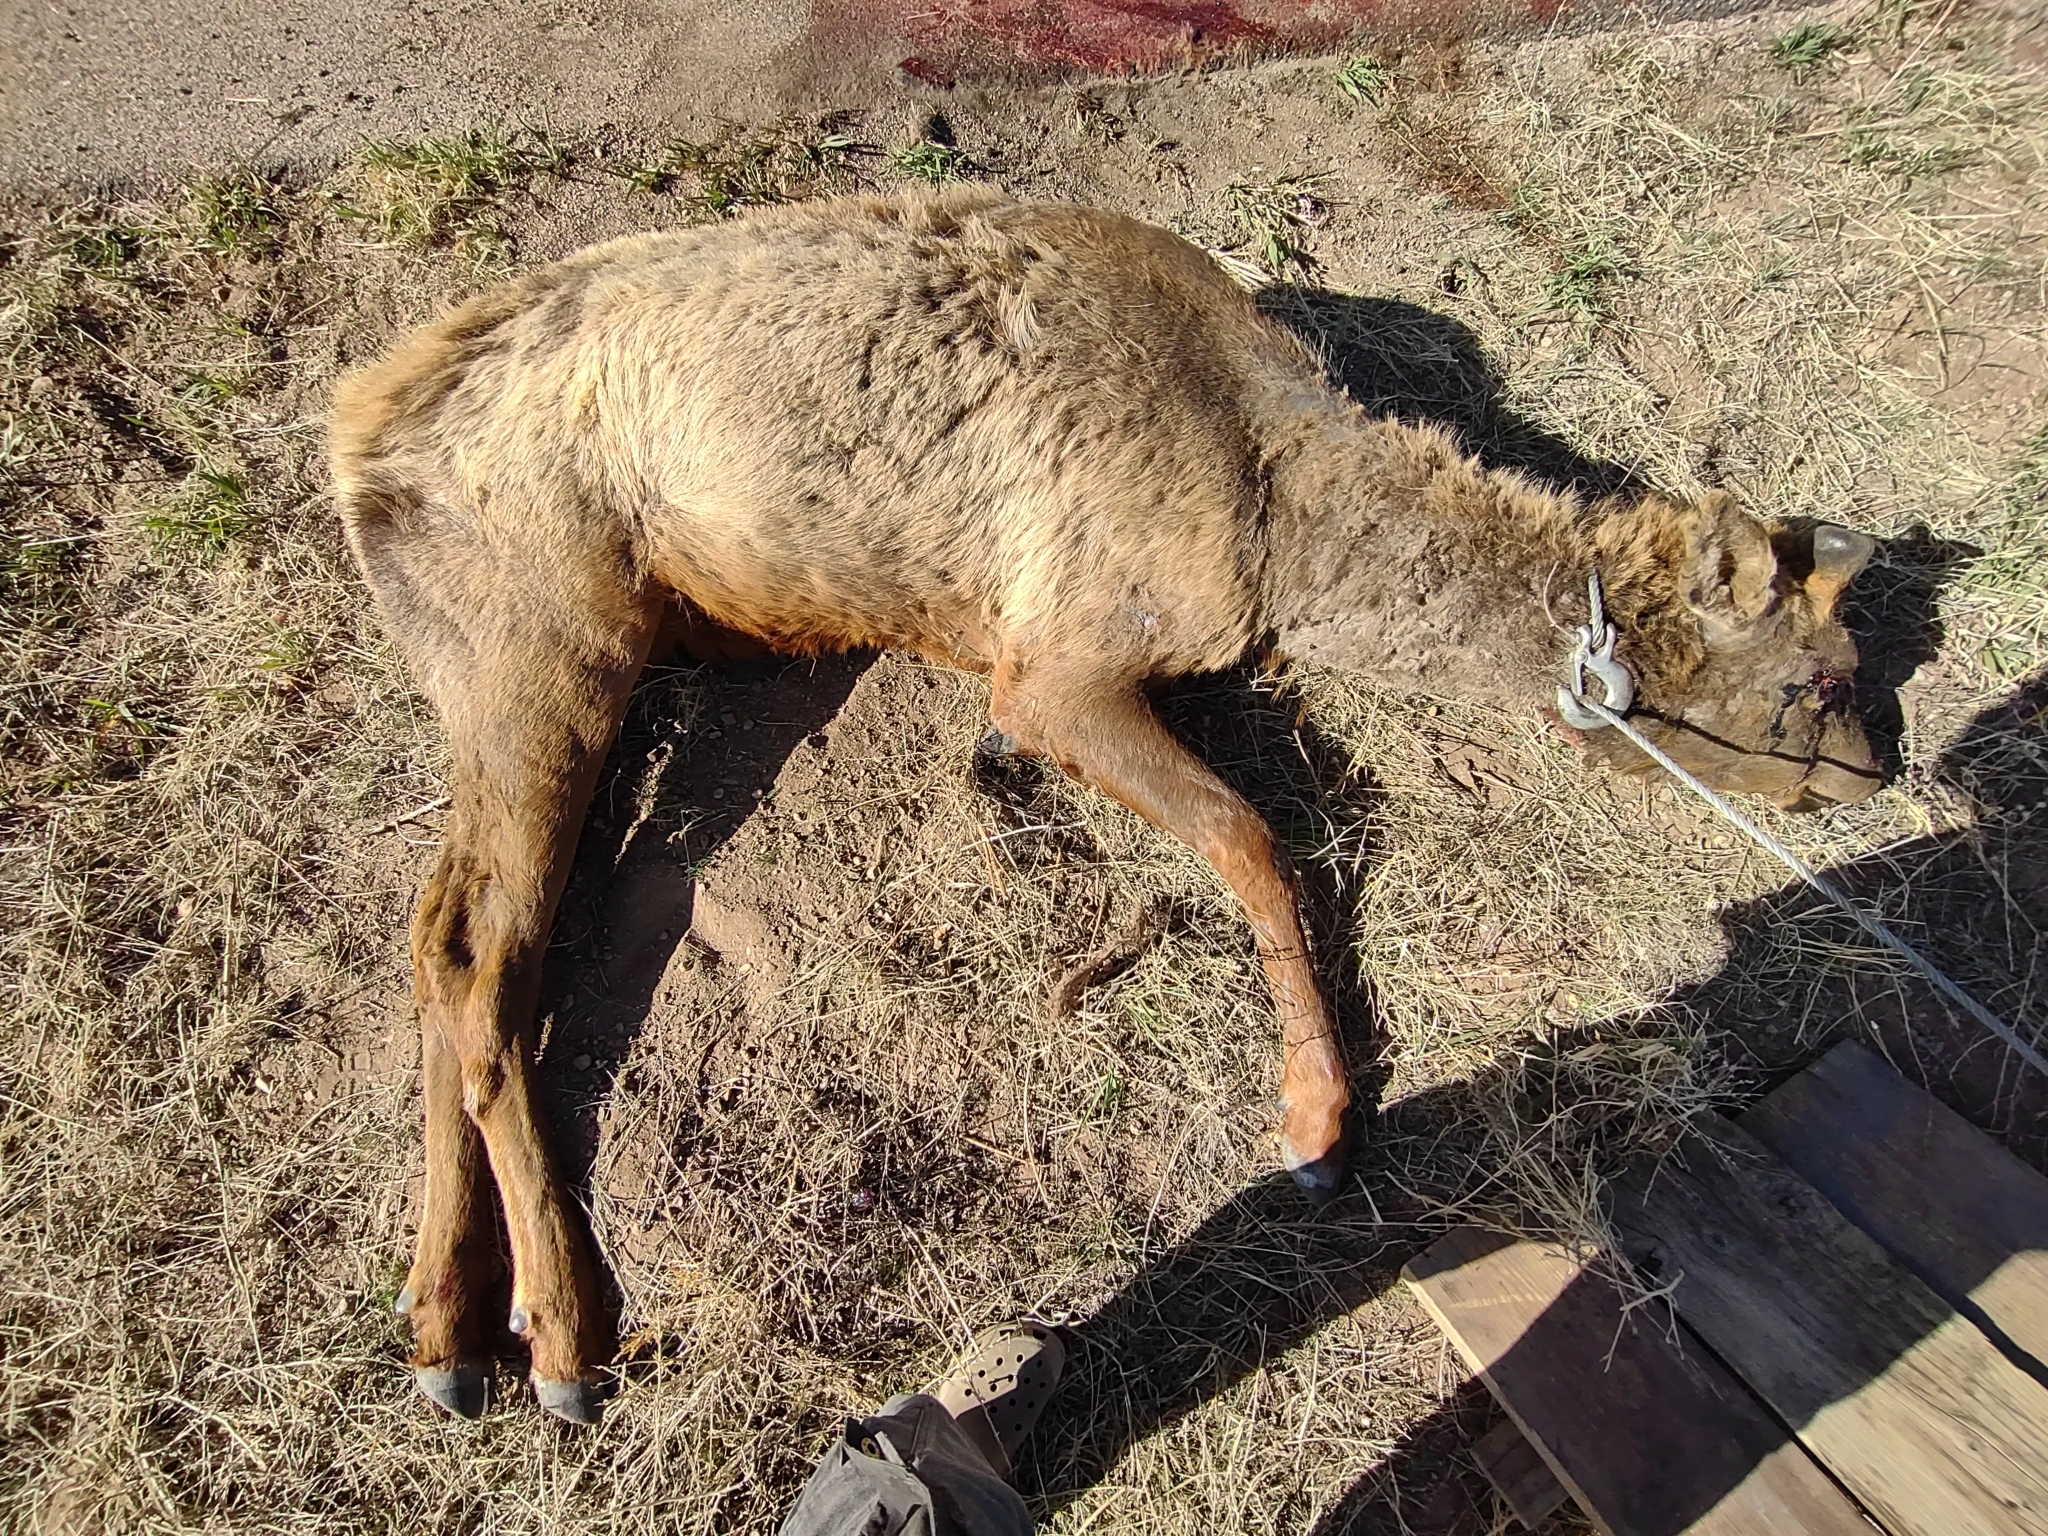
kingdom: Animalia
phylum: Chordata
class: Mammalia
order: Artiodactyla
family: Cervidae
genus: Cervus
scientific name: Cervus elaphus
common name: Red deer
